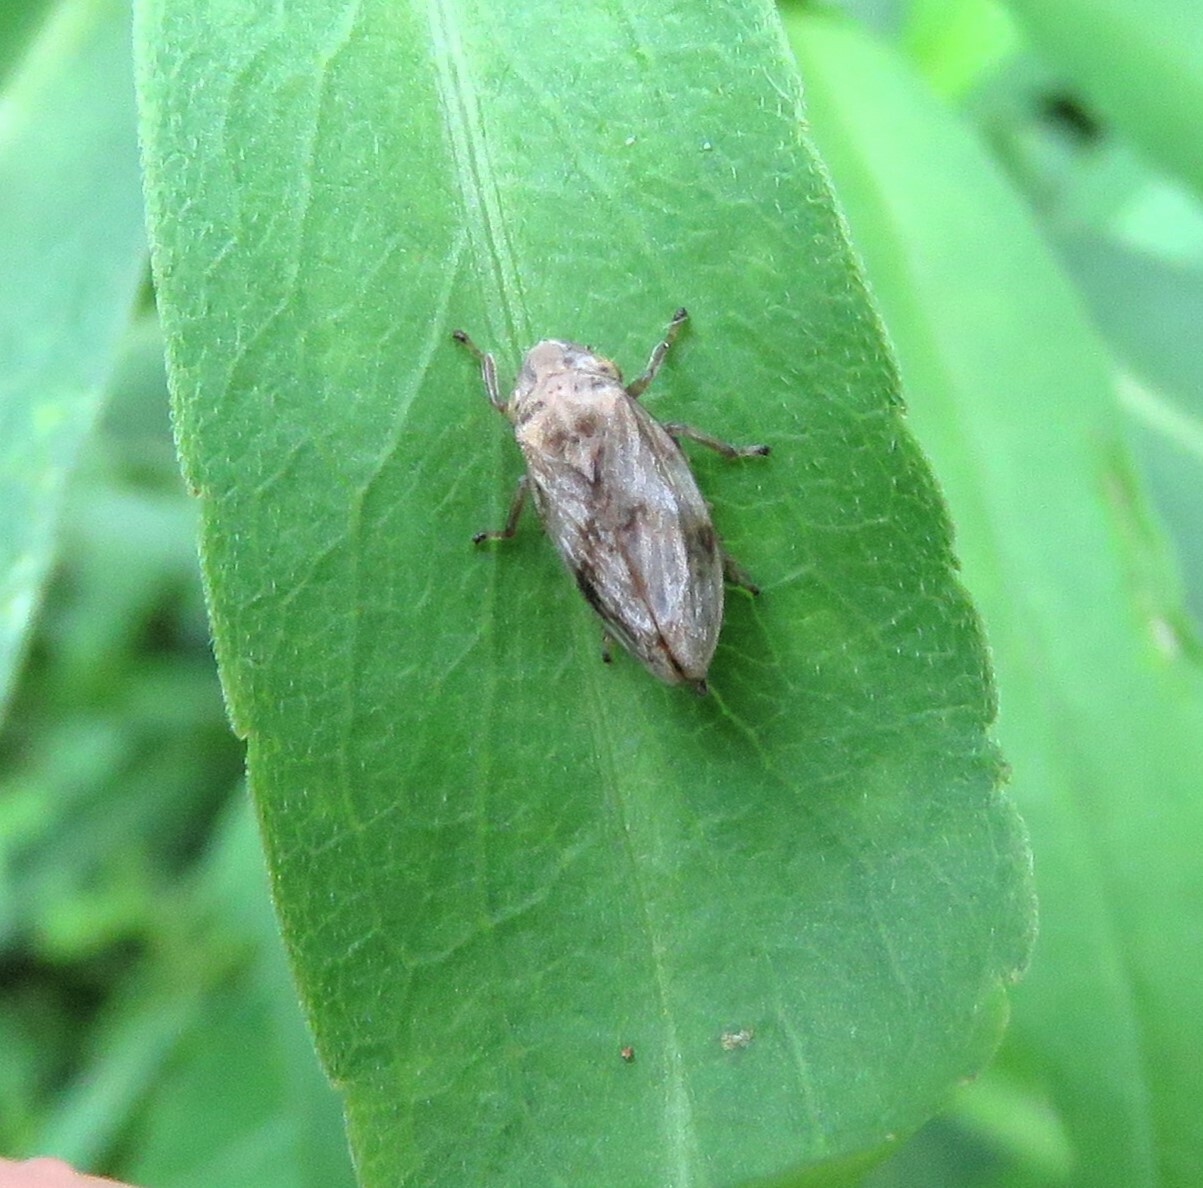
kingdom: Animalia
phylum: Arthropoda
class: Insecta
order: Hemiptera
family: Aphrophoridae
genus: Philaenus
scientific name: Philaenus spumarius
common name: Meadow spittlebug
